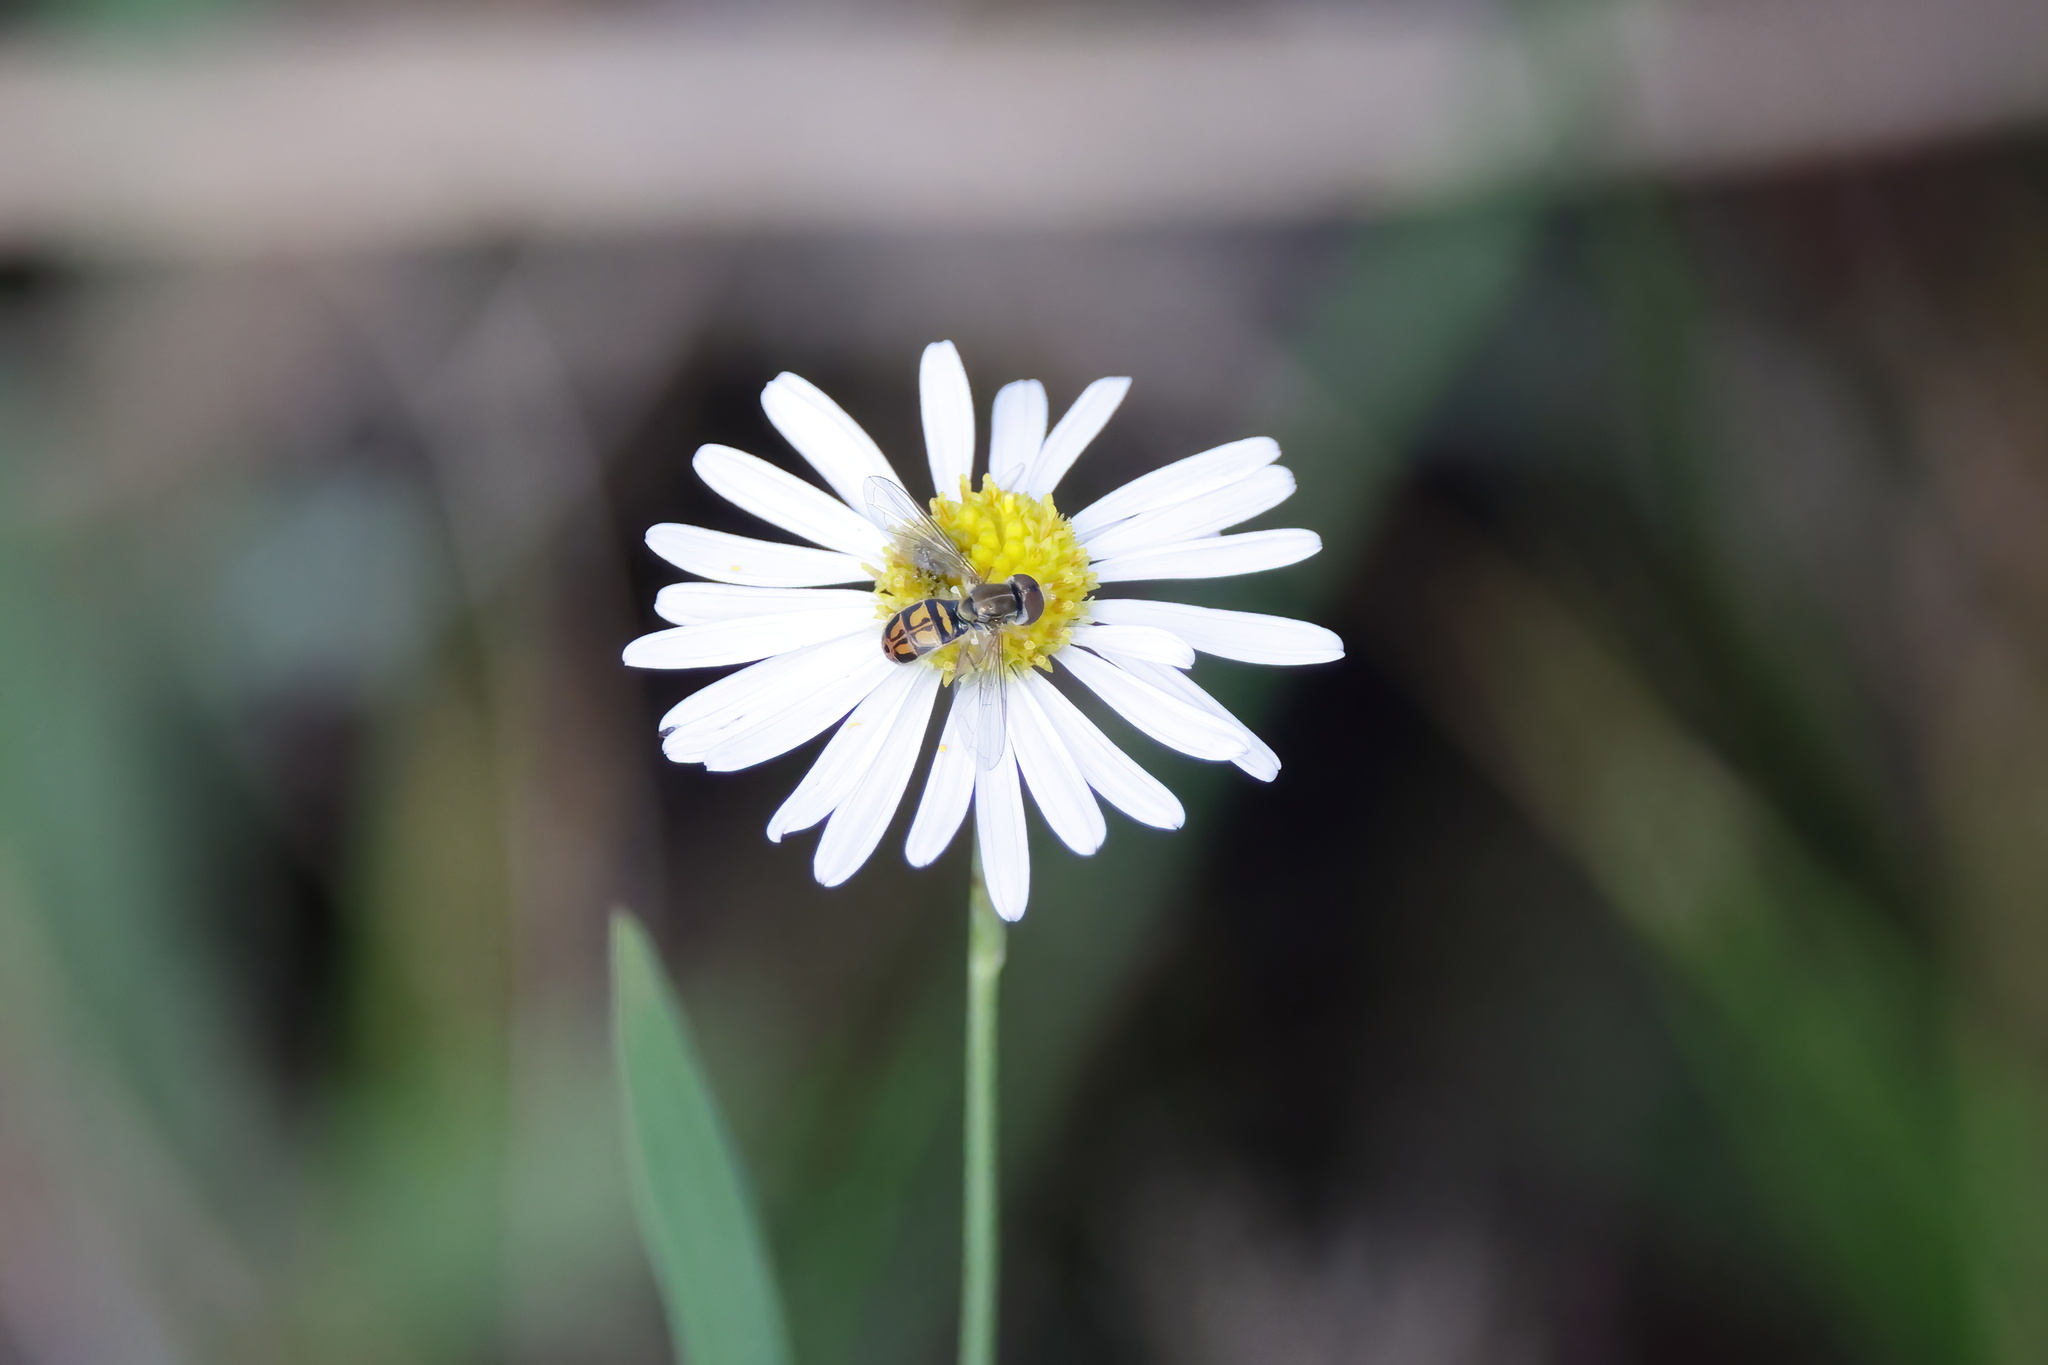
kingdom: Animalia
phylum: Arthropoda
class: Insecta
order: Diptera
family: Syrphidae
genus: Toxomerus
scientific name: Toxomerus marginatus
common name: Syrphid fly
